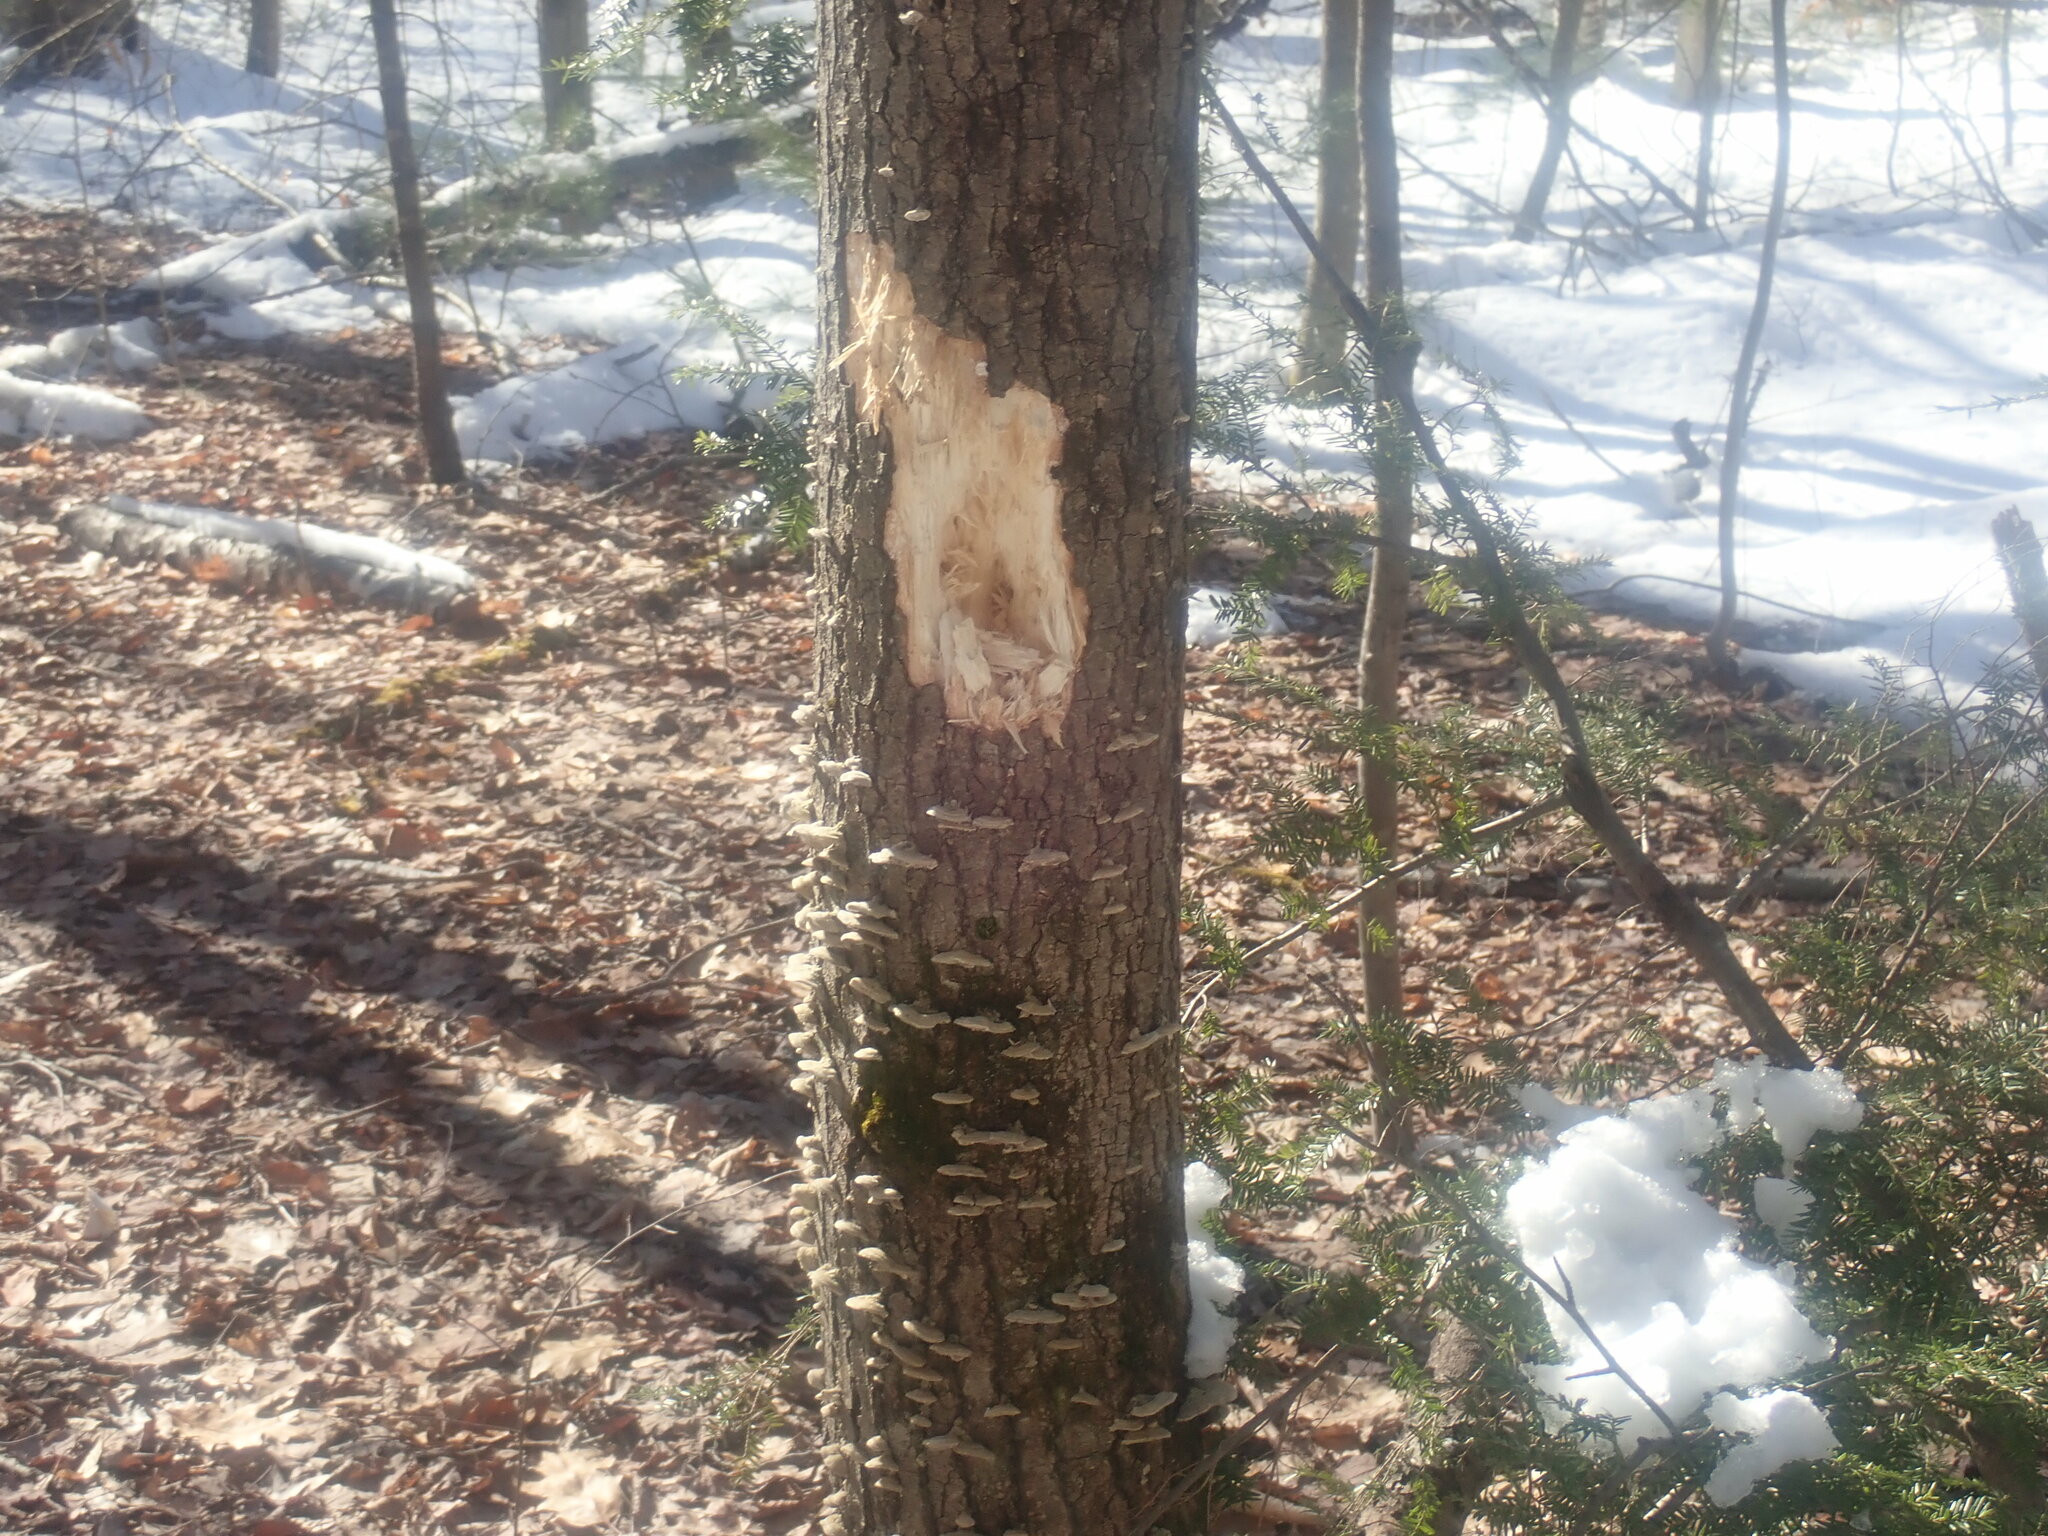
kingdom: Animalia
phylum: Chordata
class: Aves
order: Piciformes
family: Picidae
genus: Dryocopus
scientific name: Dryocopus pileatus
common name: Pileated woodpecker
